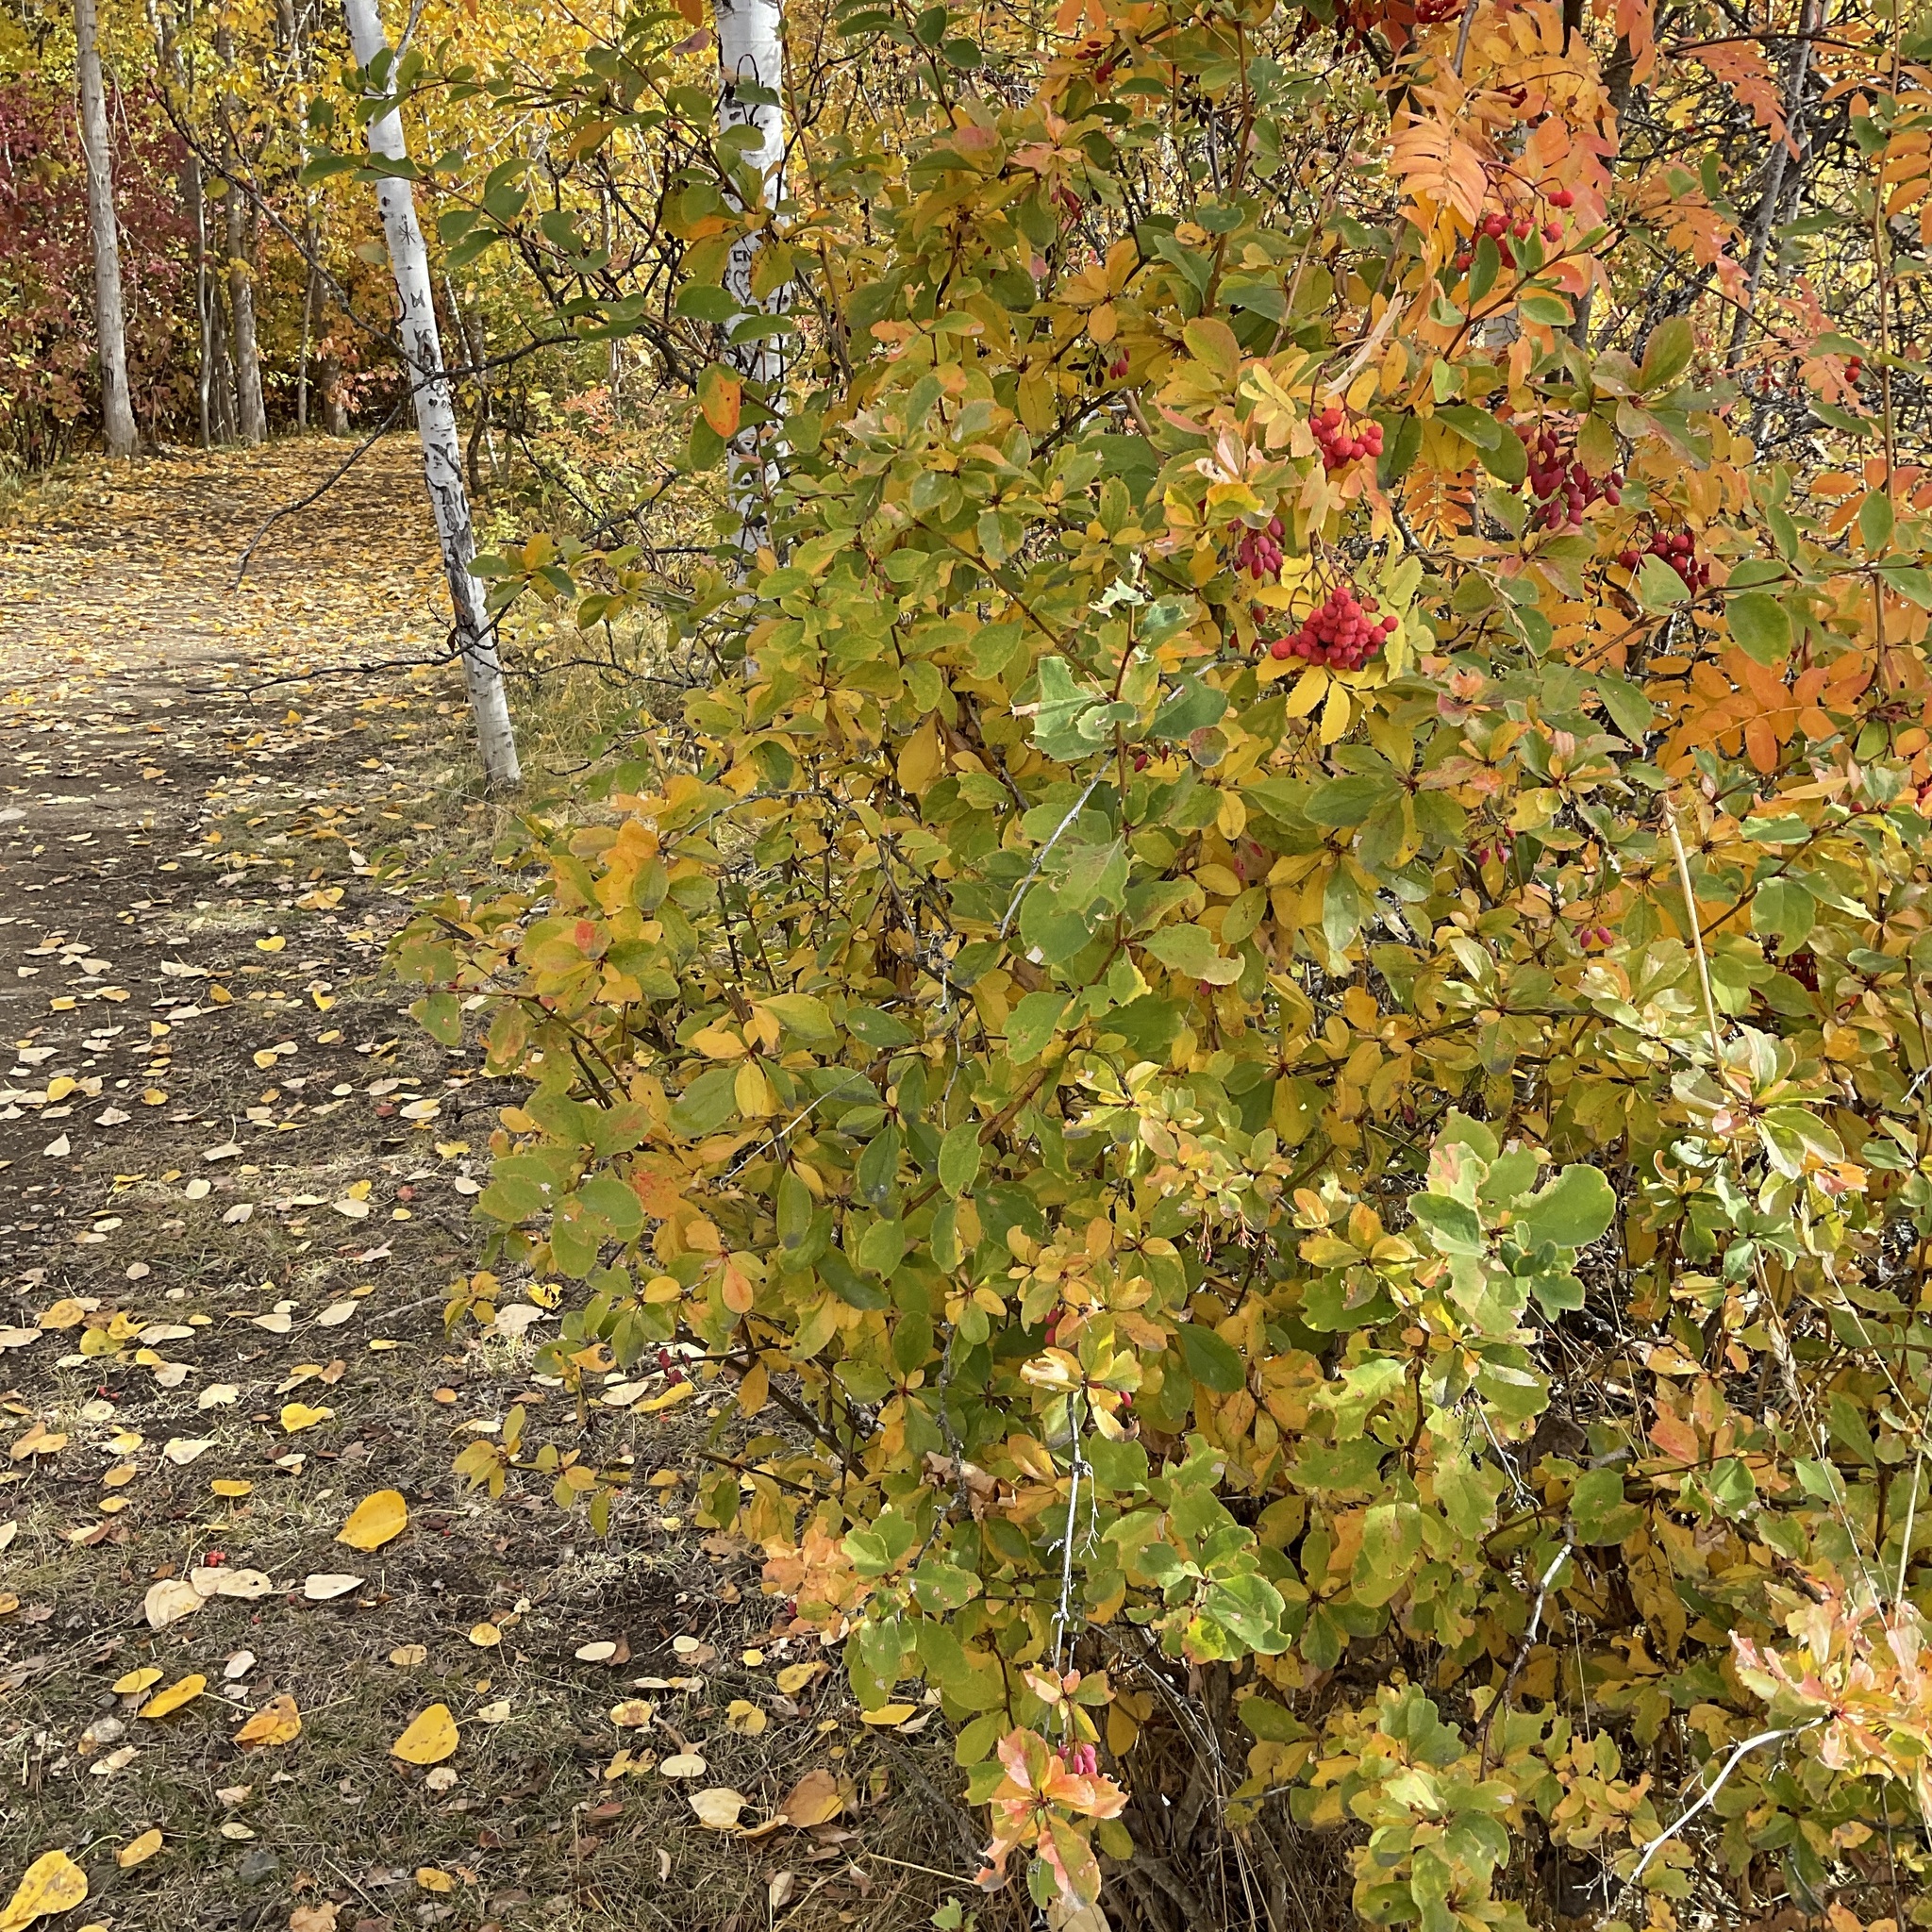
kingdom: Plantae
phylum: Tracheophyta
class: Magnoliopsida
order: Rosales
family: Rosaceae
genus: Sorbus
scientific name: Sorbus aucuparia
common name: Rowan
